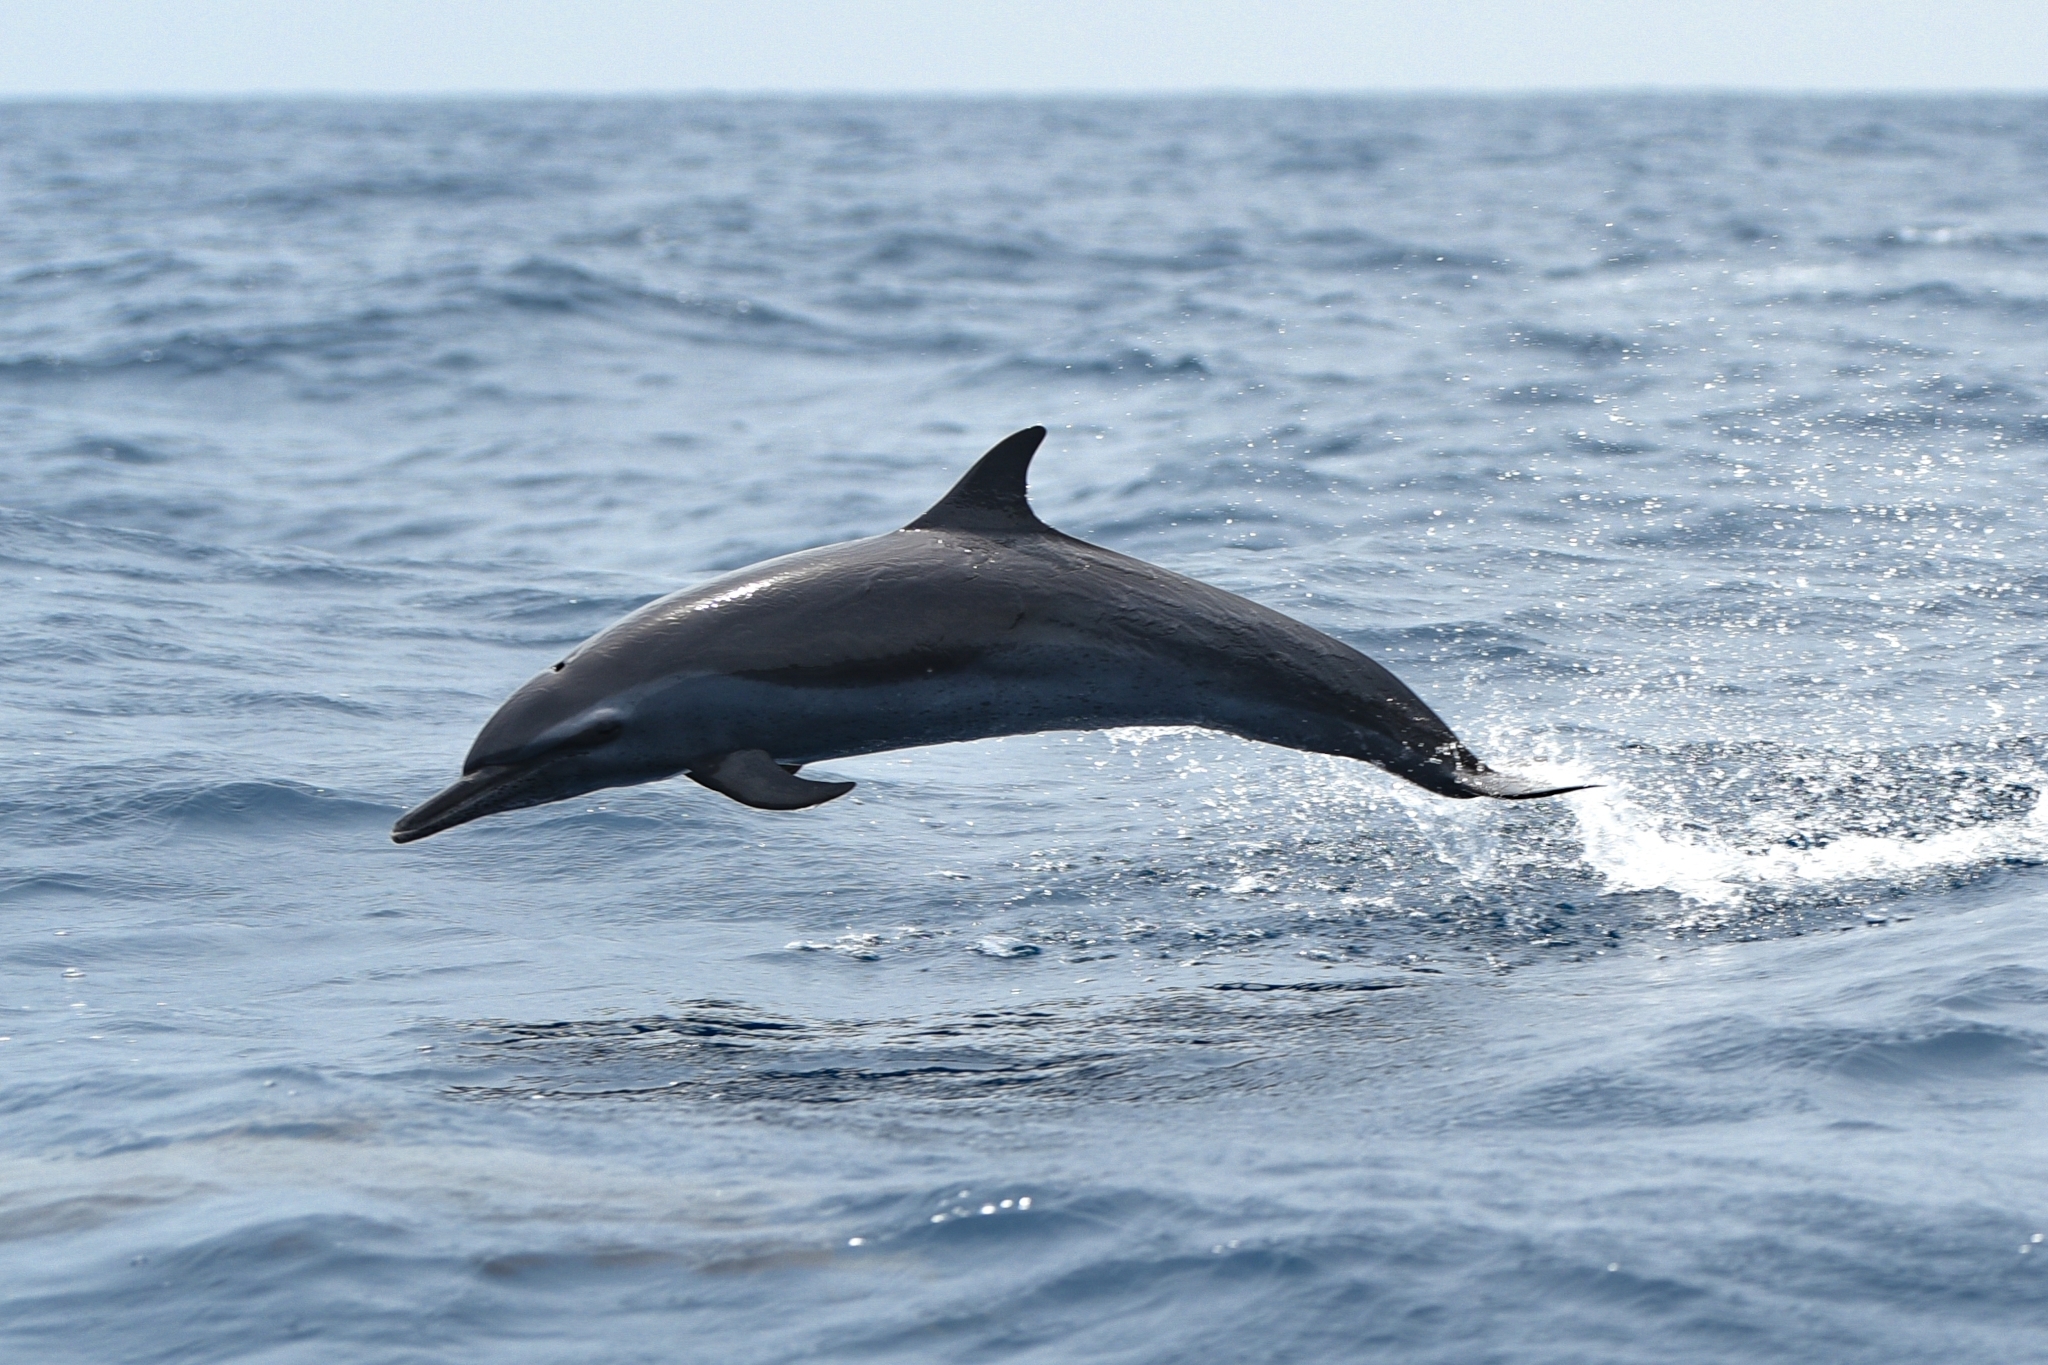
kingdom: Animalia
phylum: Chordata
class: Mammalia
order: Cetacea
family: Delphinidae
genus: Stenella
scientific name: Stenella attenuata
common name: Pantropical spotted dolphin
